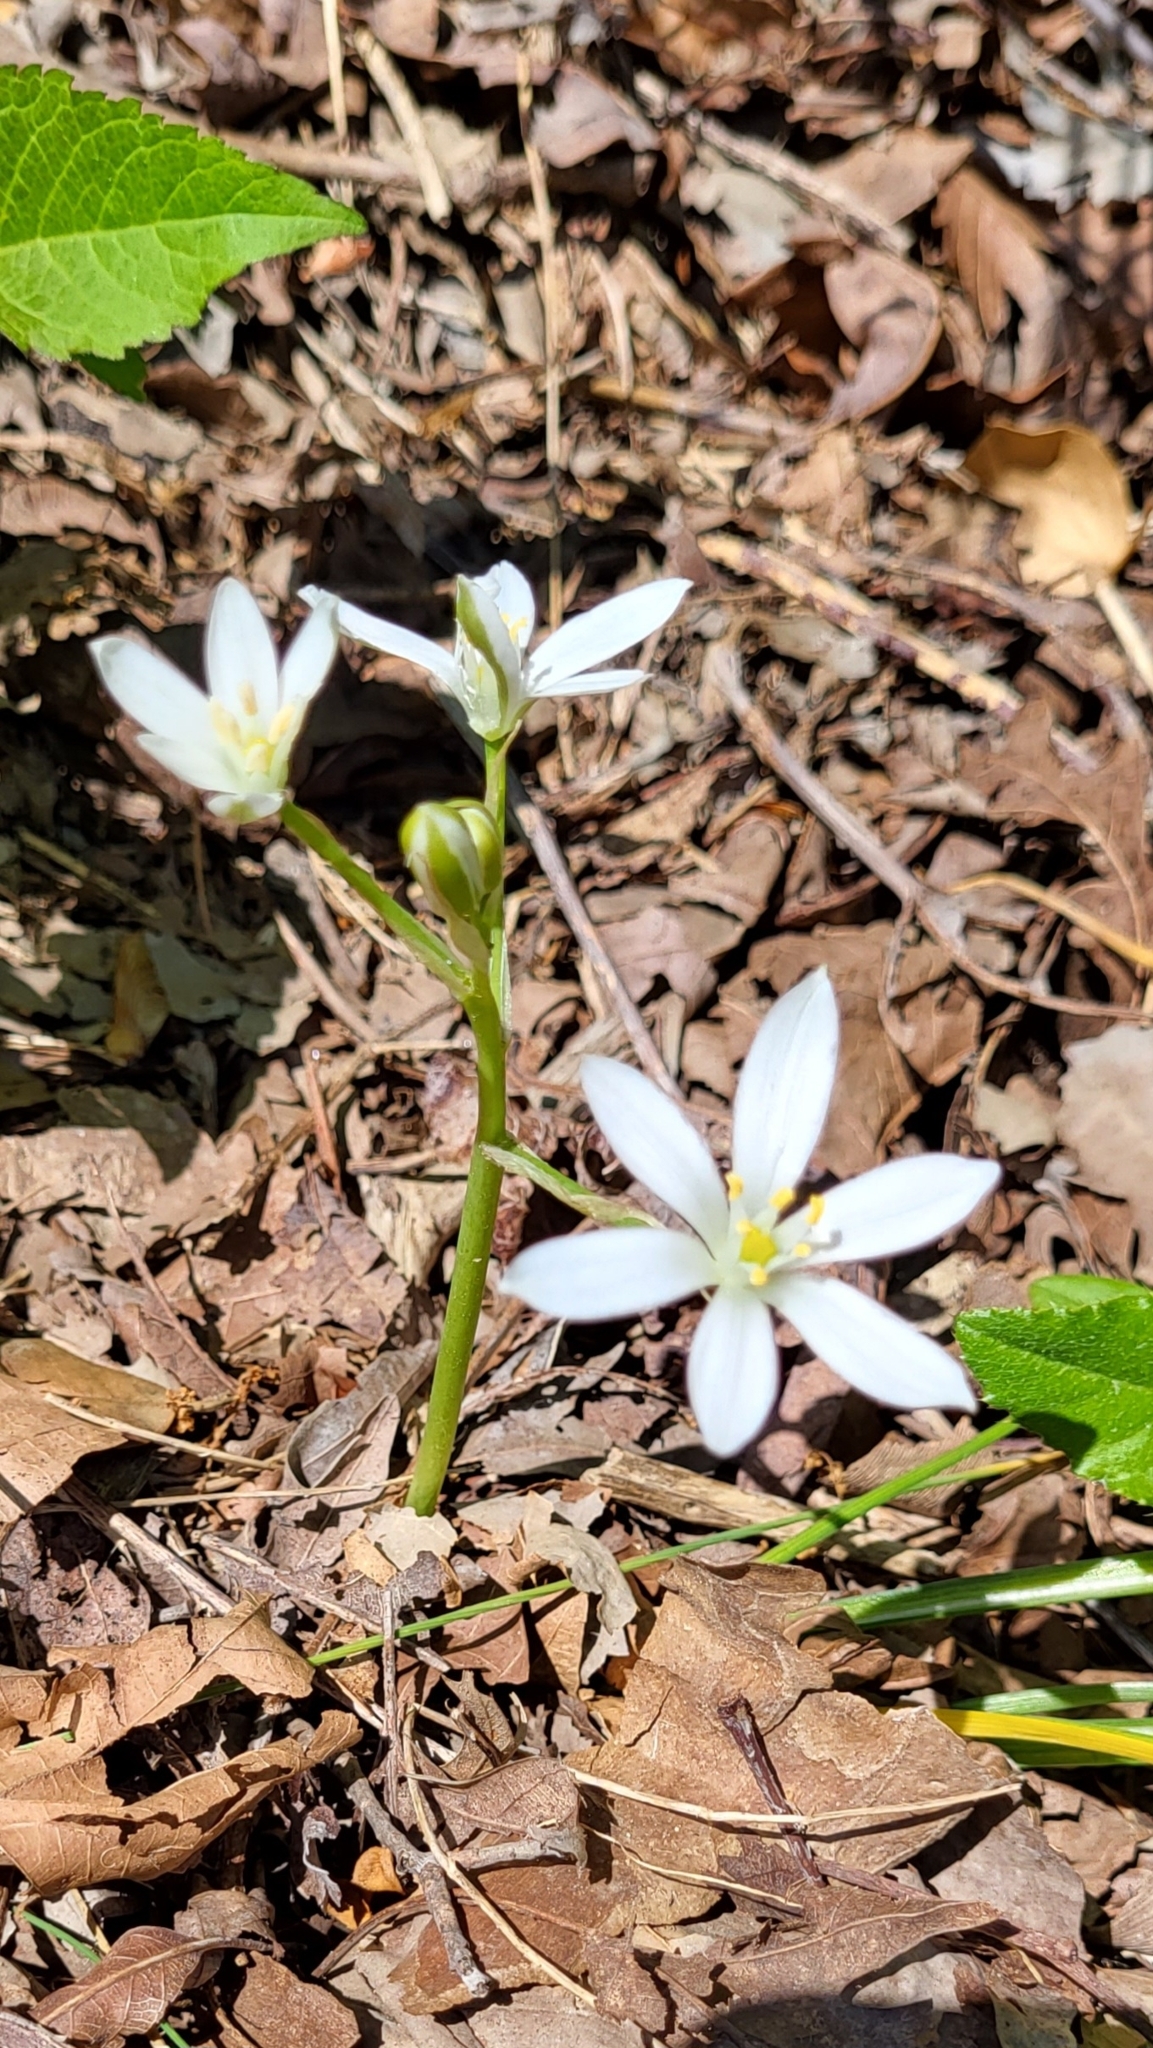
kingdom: Plantae
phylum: Tracheophyta
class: Liliopsida
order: Asparagales
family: Asparagaceae
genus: Ornithogalum
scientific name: Ornithogalum umbellatum
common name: Garden star-of-bethlehem
